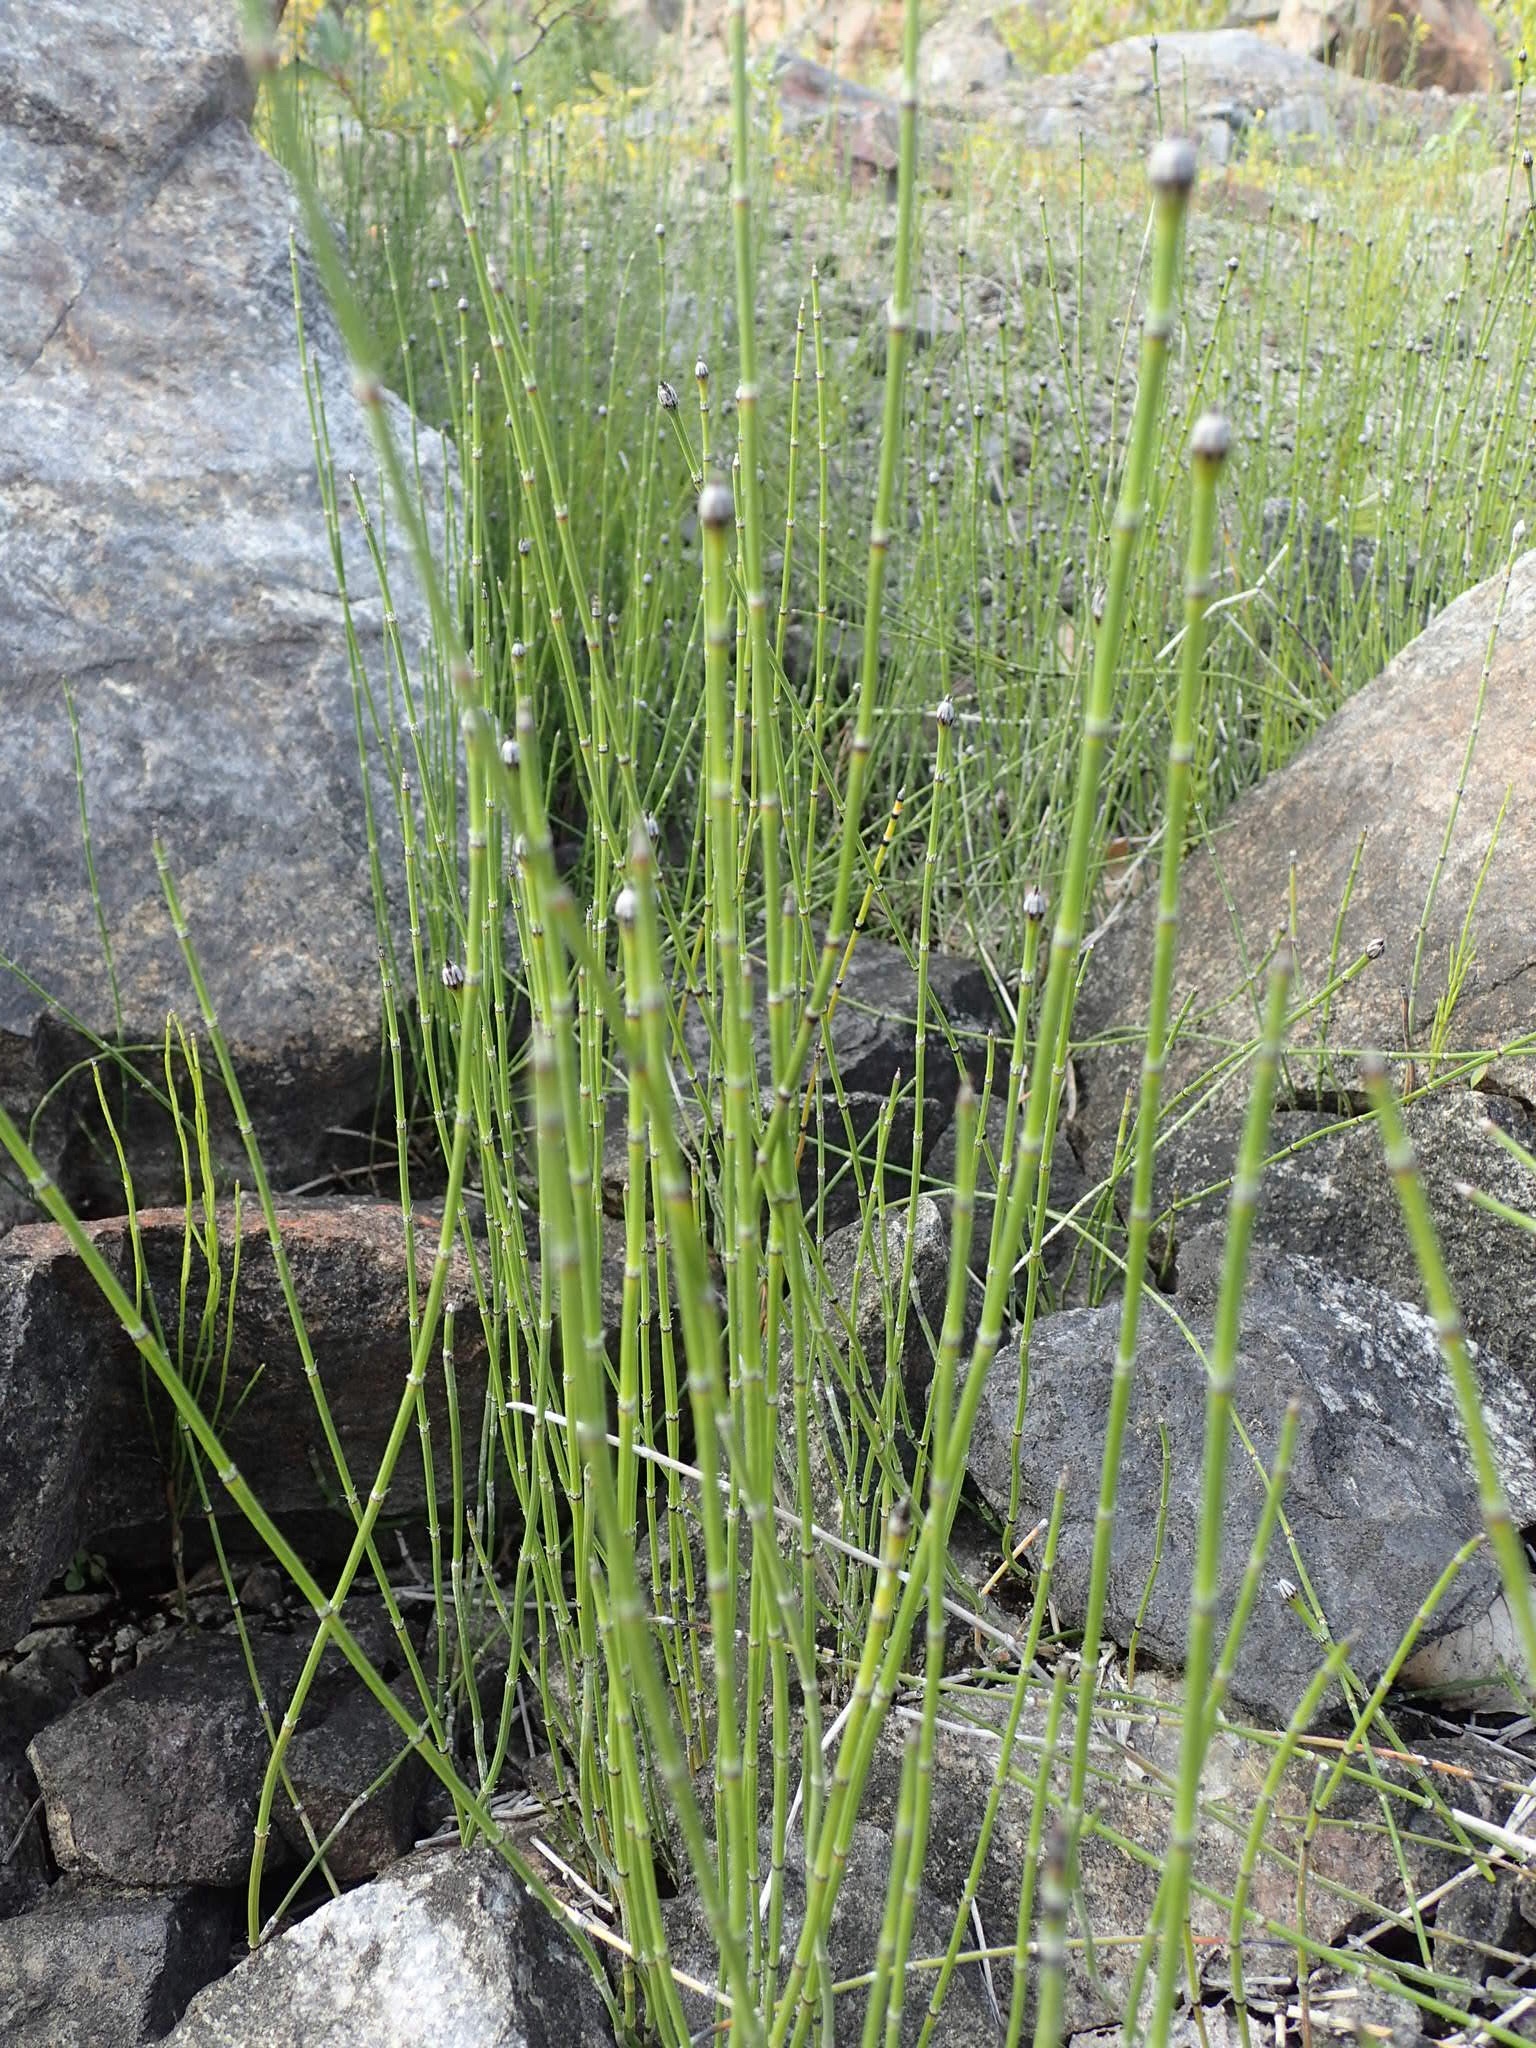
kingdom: Plantae
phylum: Tracheophyta
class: Polypodiopsida
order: Equisetales
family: Equisetaceae
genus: Equisetum
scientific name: Equisetum variegatum
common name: Variegated horsetail
